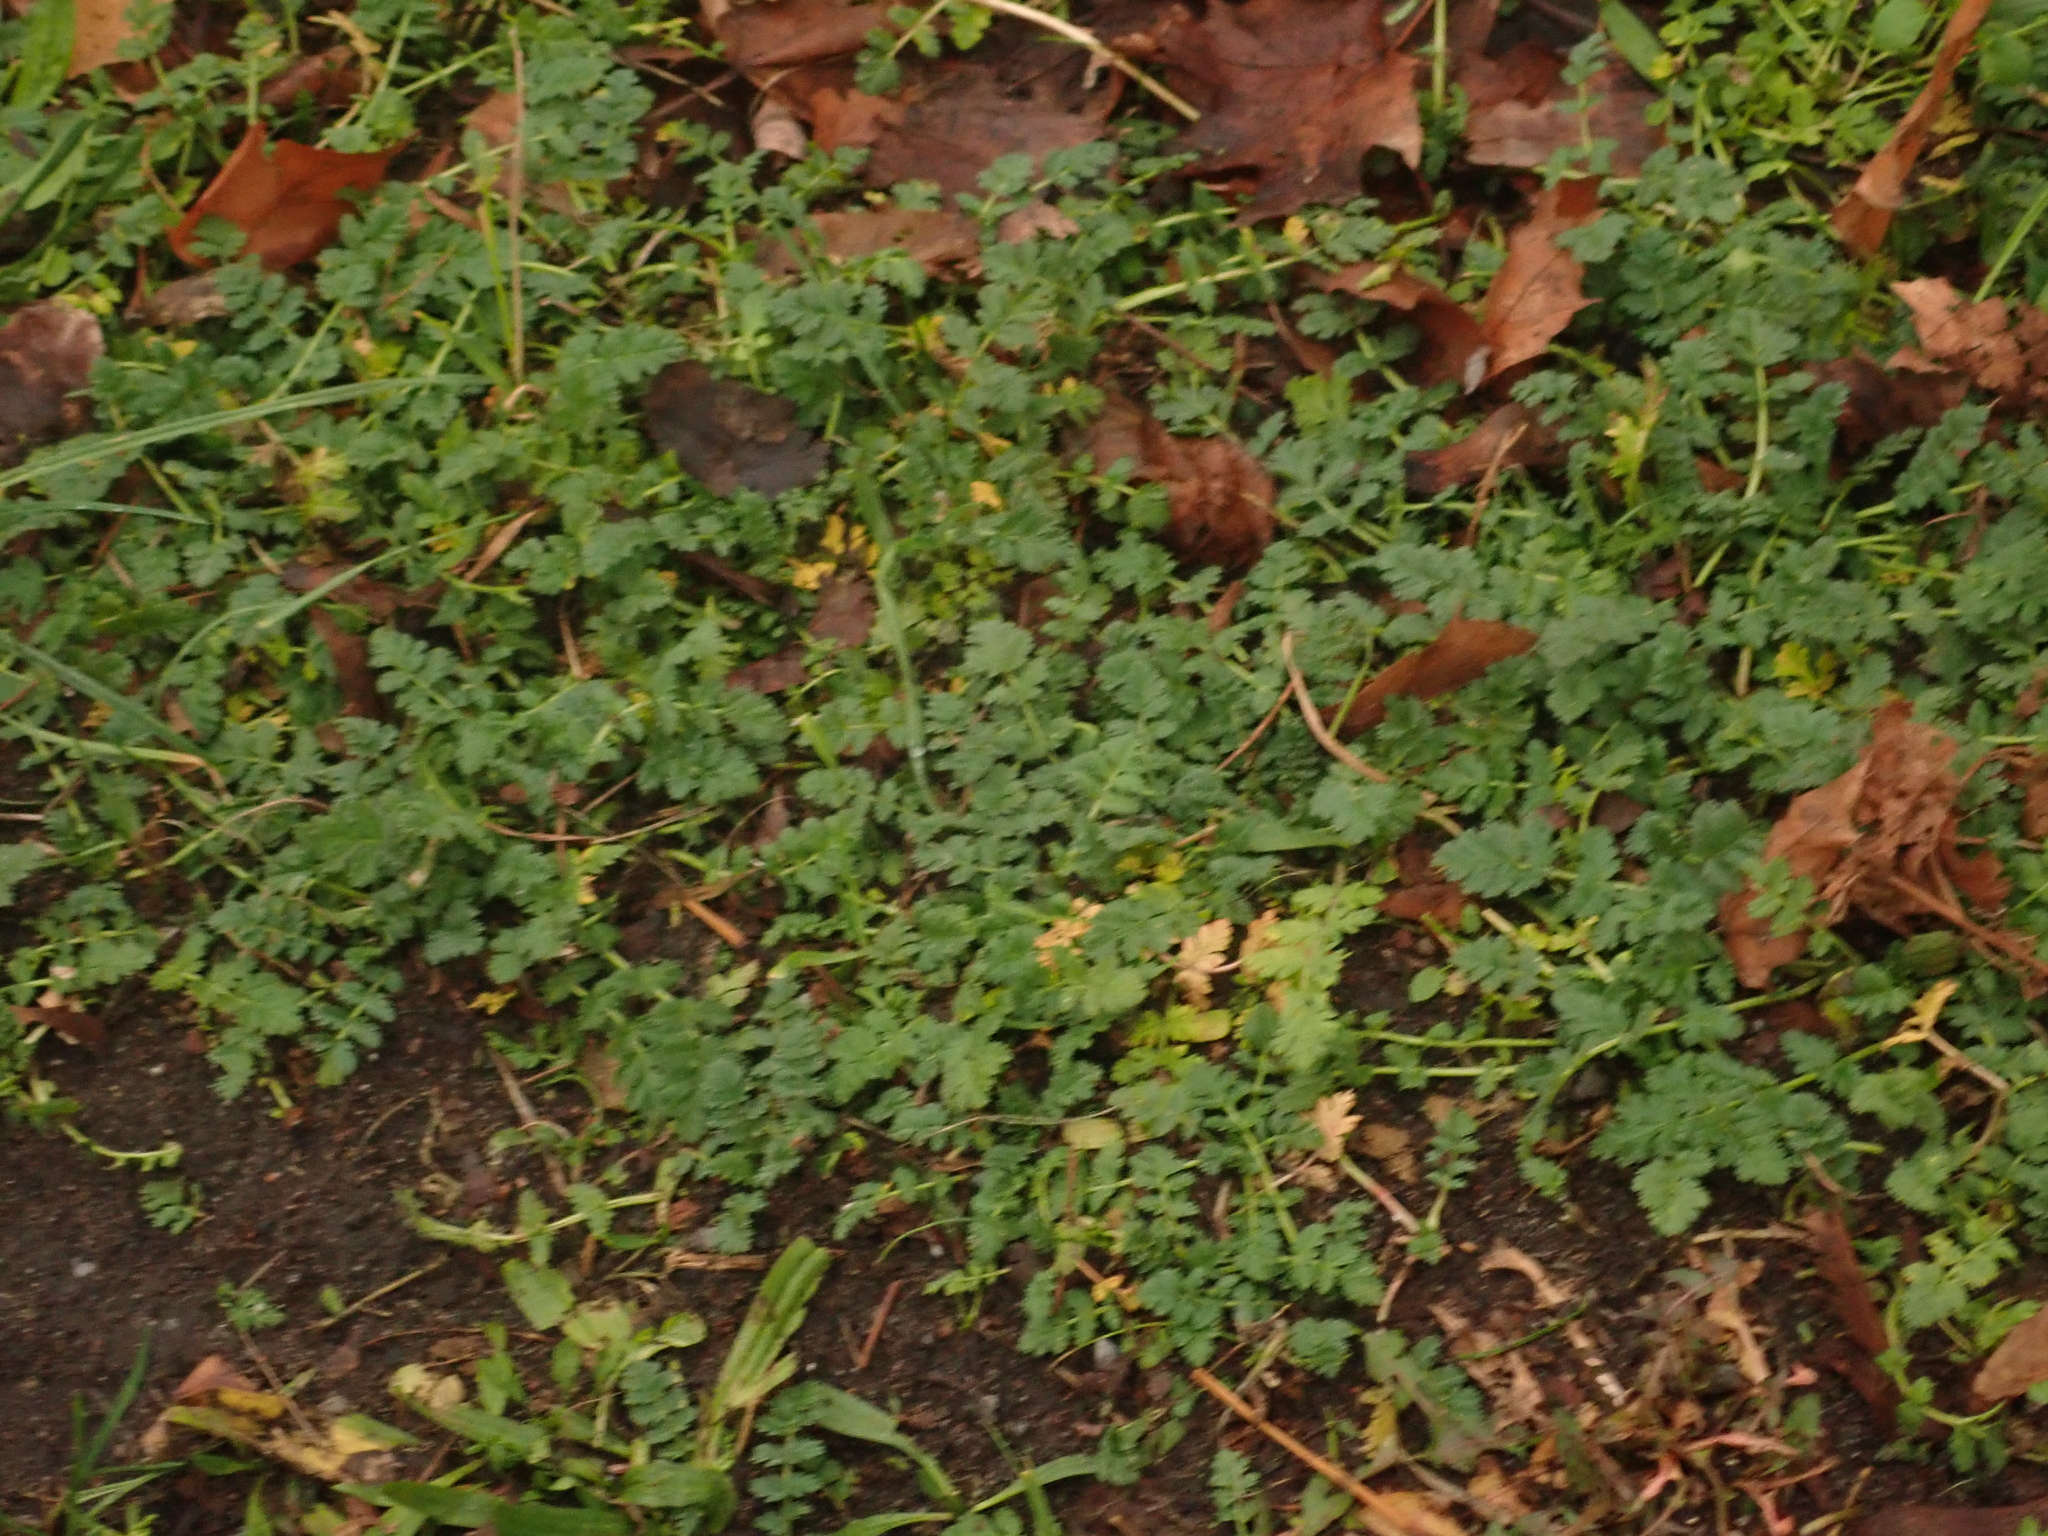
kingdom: Plantae
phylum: Tracheophyta
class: Magnoliopsida
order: Geraniales
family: Geraniaceae
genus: Erodium
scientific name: Erodium cicutarium
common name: Common stork's-bill
